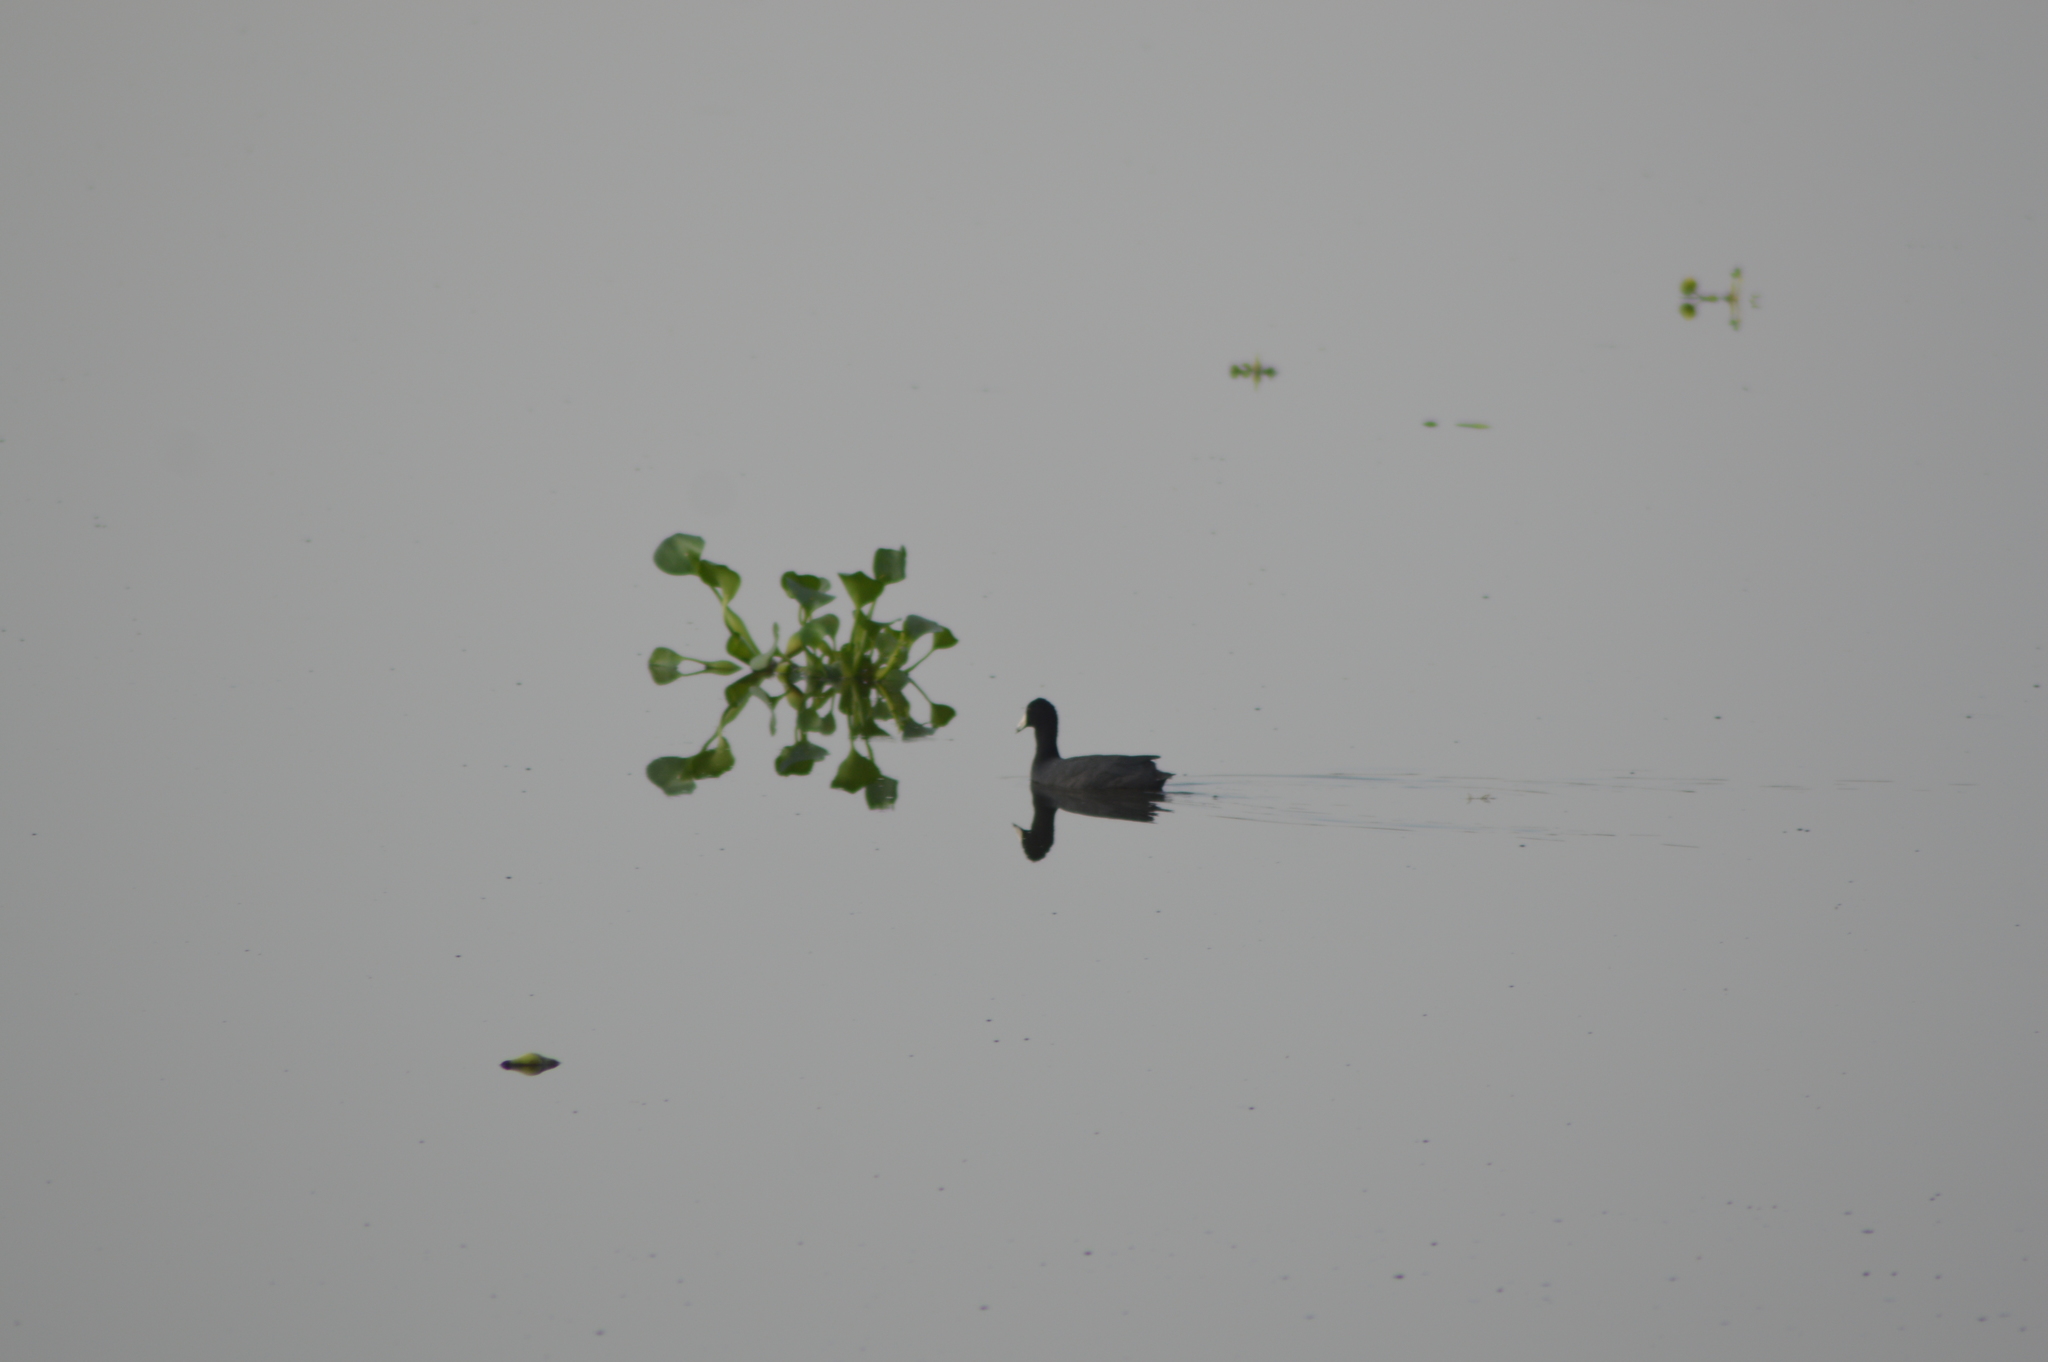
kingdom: Animalia
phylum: Chordata
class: Aves
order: Gruiformes
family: Rallidae
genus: Fulica
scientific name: Fulica americana
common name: American coot
